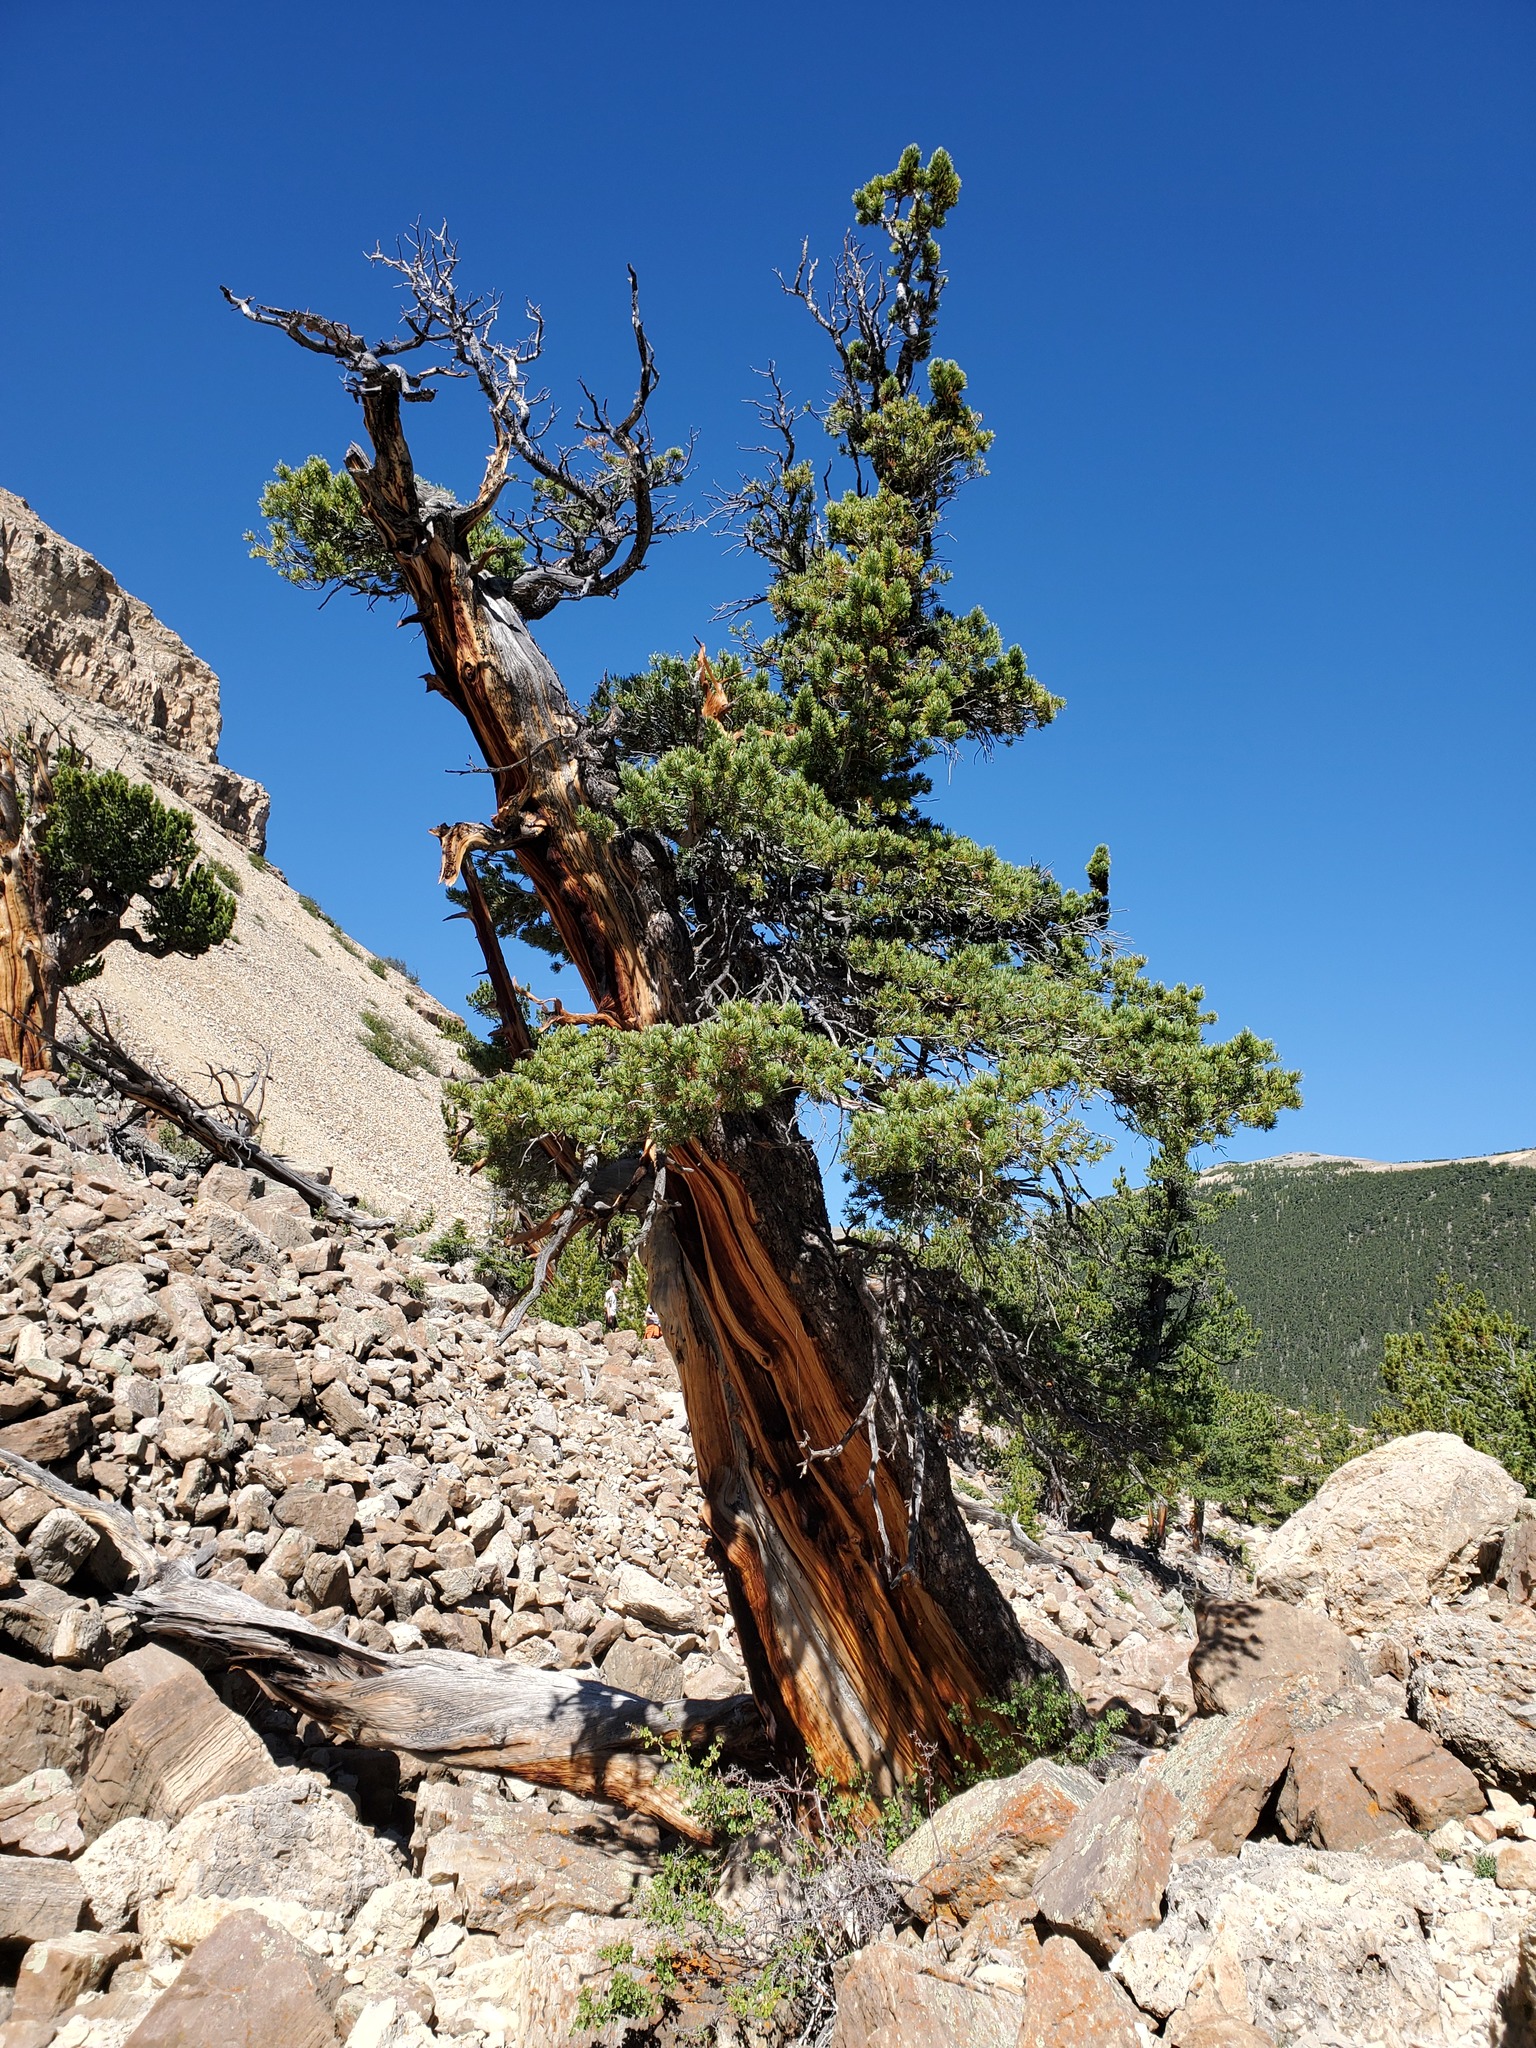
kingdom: Plantae
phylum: Tracheophyta
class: Pinopsida
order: Pinales
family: Pinaceae
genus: Pinus
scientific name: Pinus flexilis
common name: Limber pine
